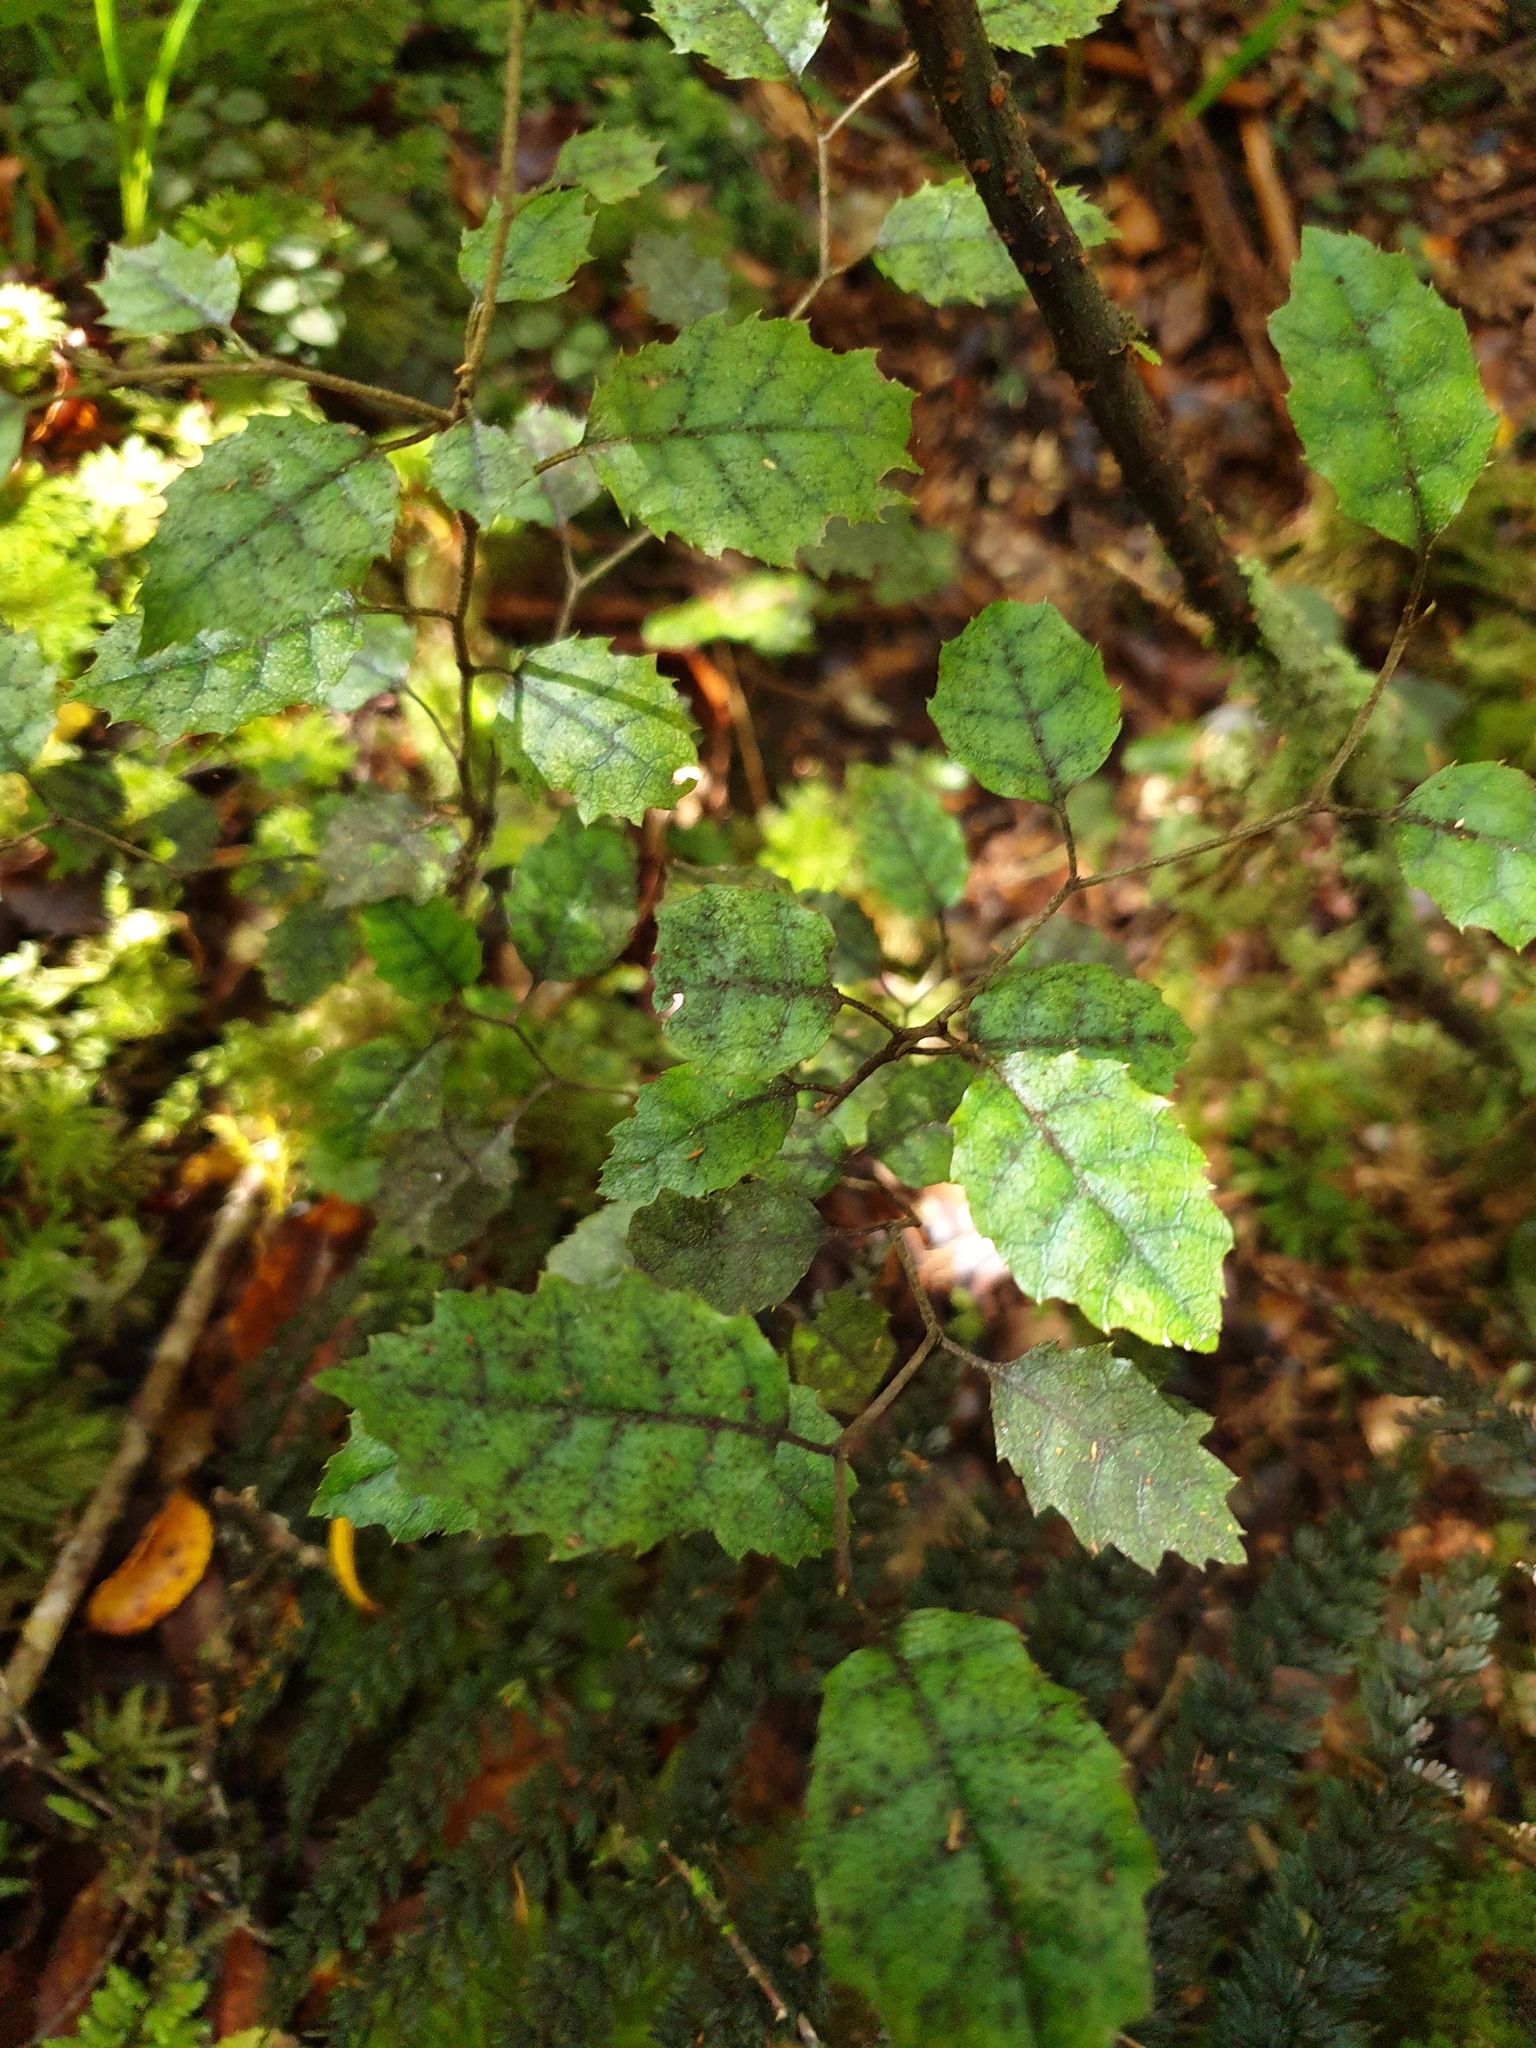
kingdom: Plantae
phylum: Tracheophyta
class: Magnoliopsida
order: Asterales
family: Rousseaceae
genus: Carpodetus
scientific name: Carpodetus serratus
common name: White mapau
